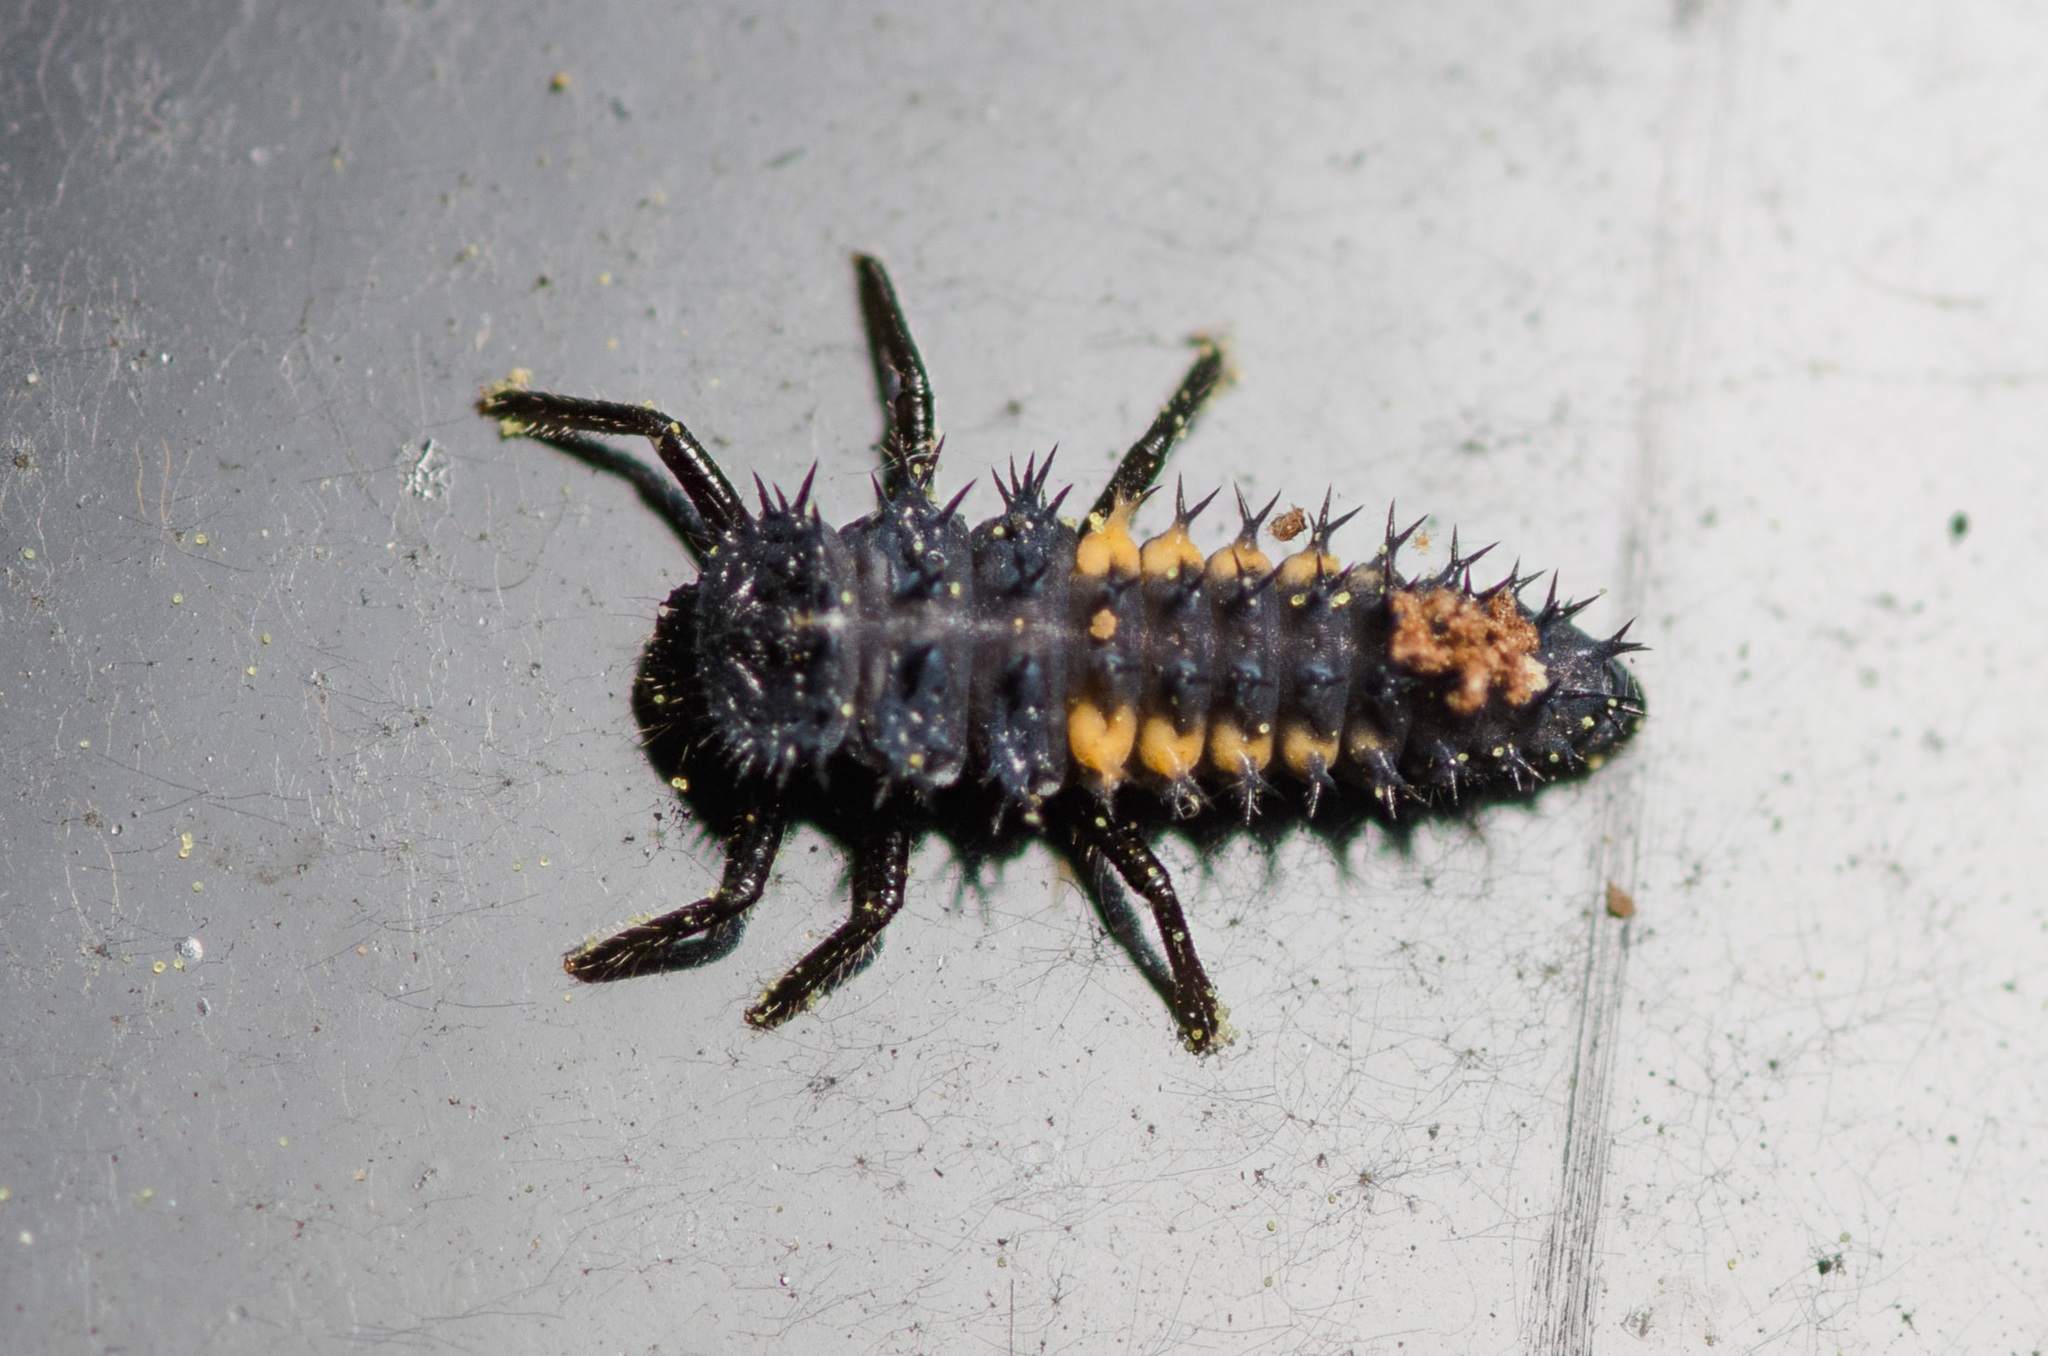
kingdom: Animalia
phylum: Arthropoda
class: Insecta
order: Coleoptera
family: Coccinellidae
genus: Harmonia
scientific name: Harmonia axyridis
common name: Harlequin ladybird
